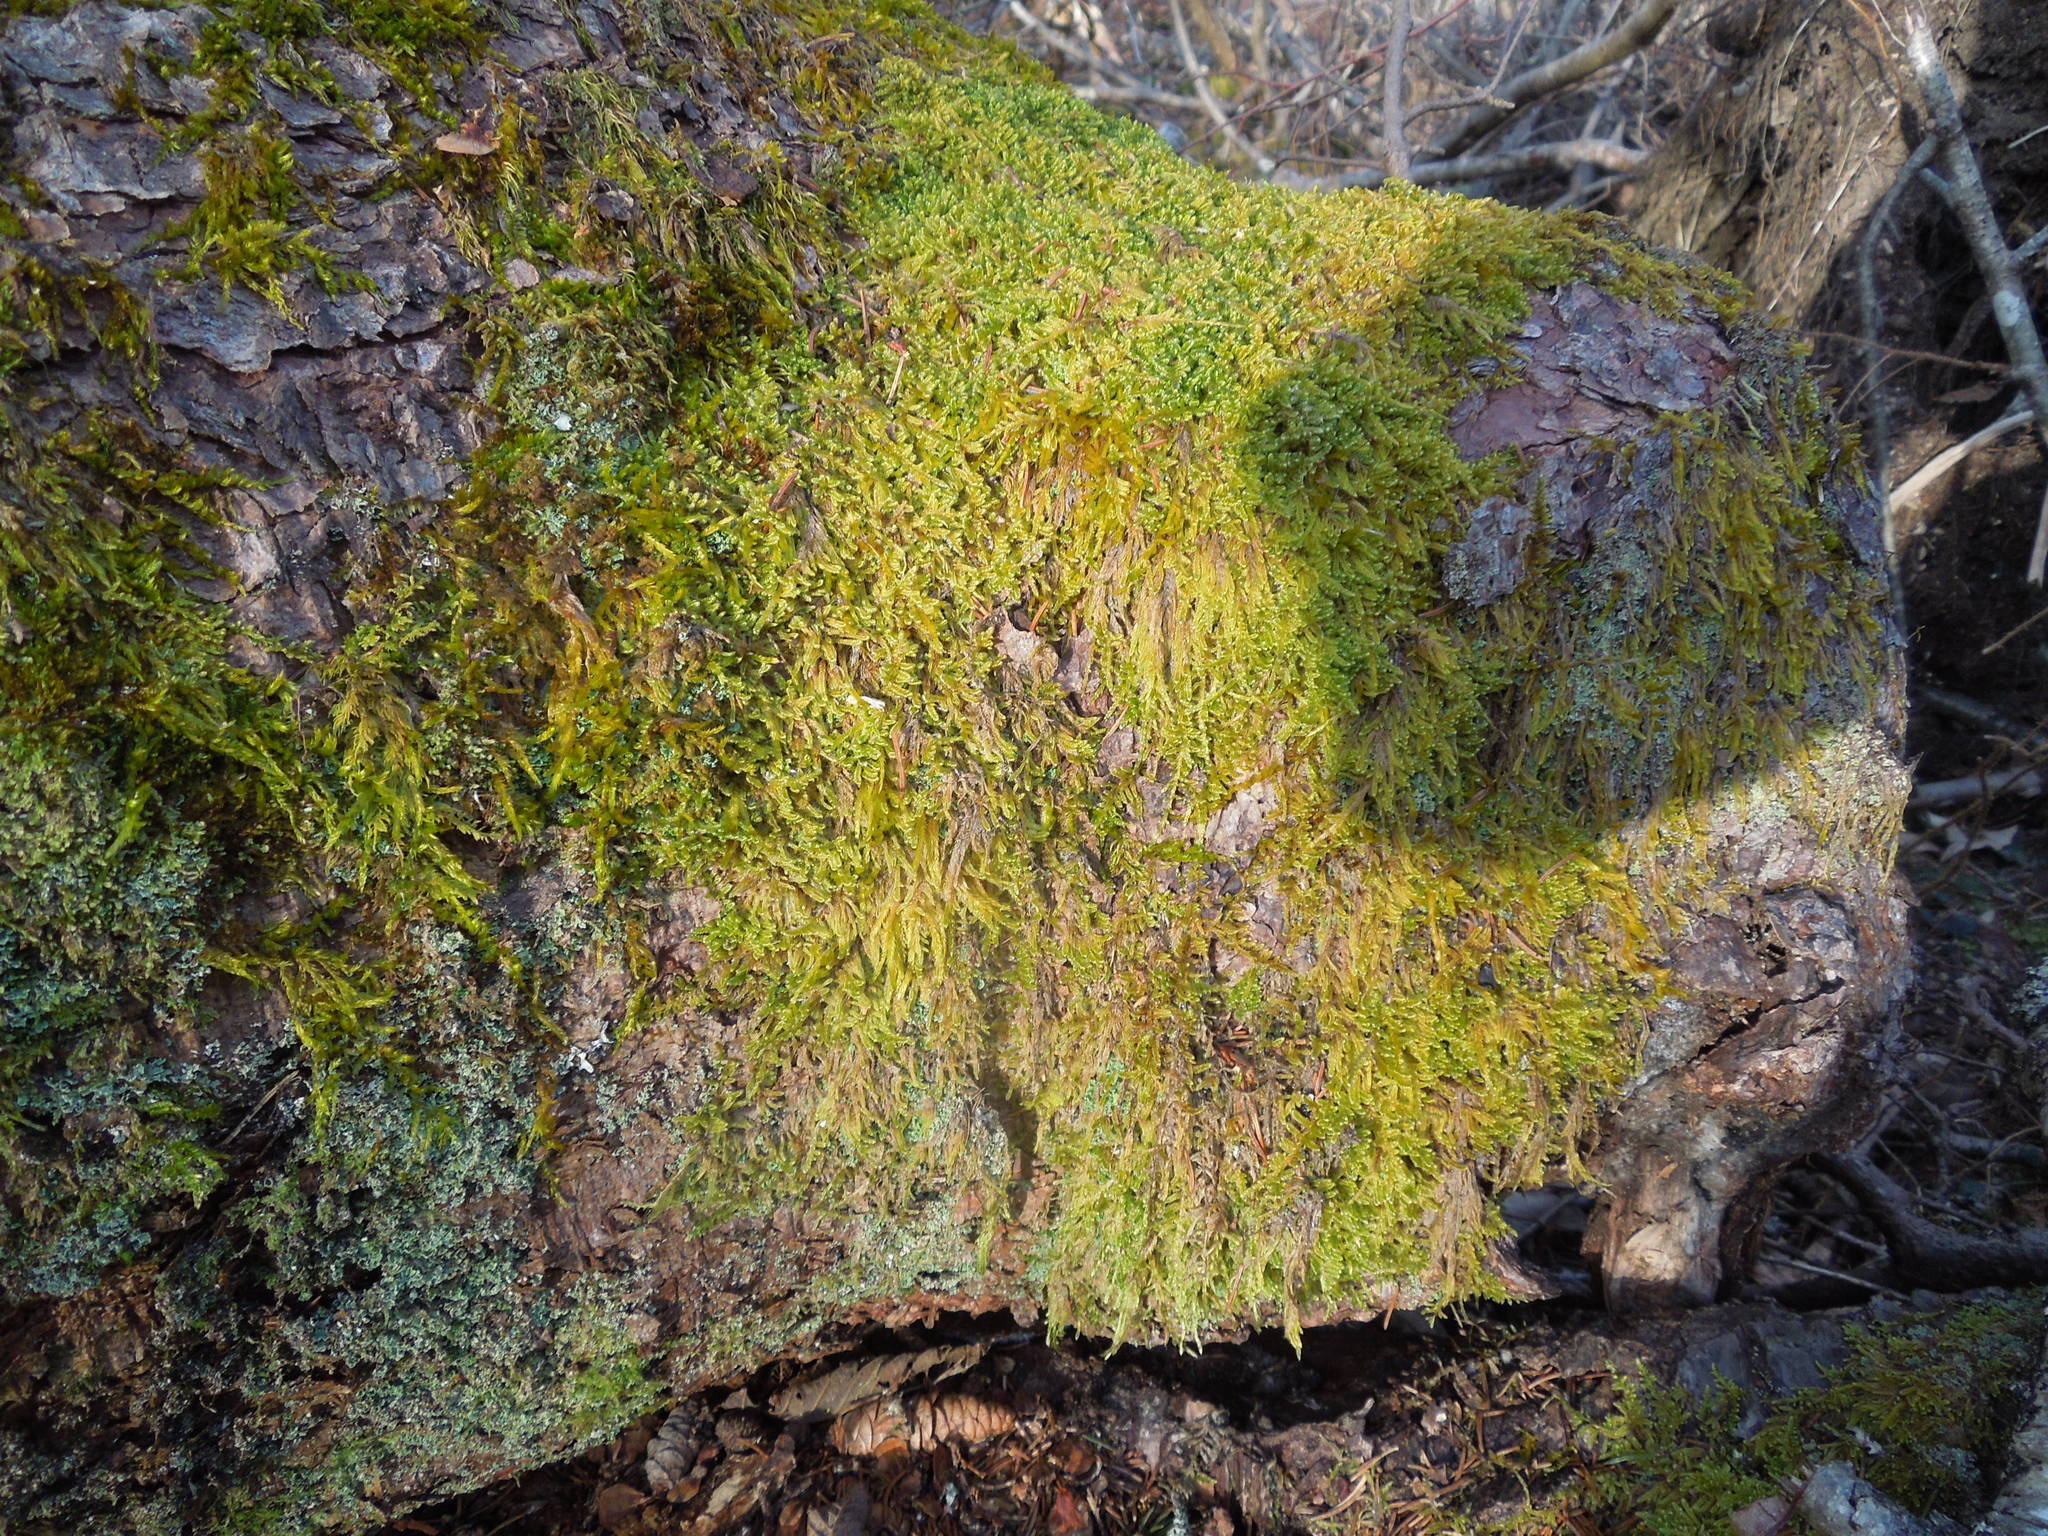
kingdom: Plantae
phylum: Bryophyta
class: Bryopsida
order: Hypnales
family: Callicladiaceae
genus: Callicladium
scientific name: Callicladium
